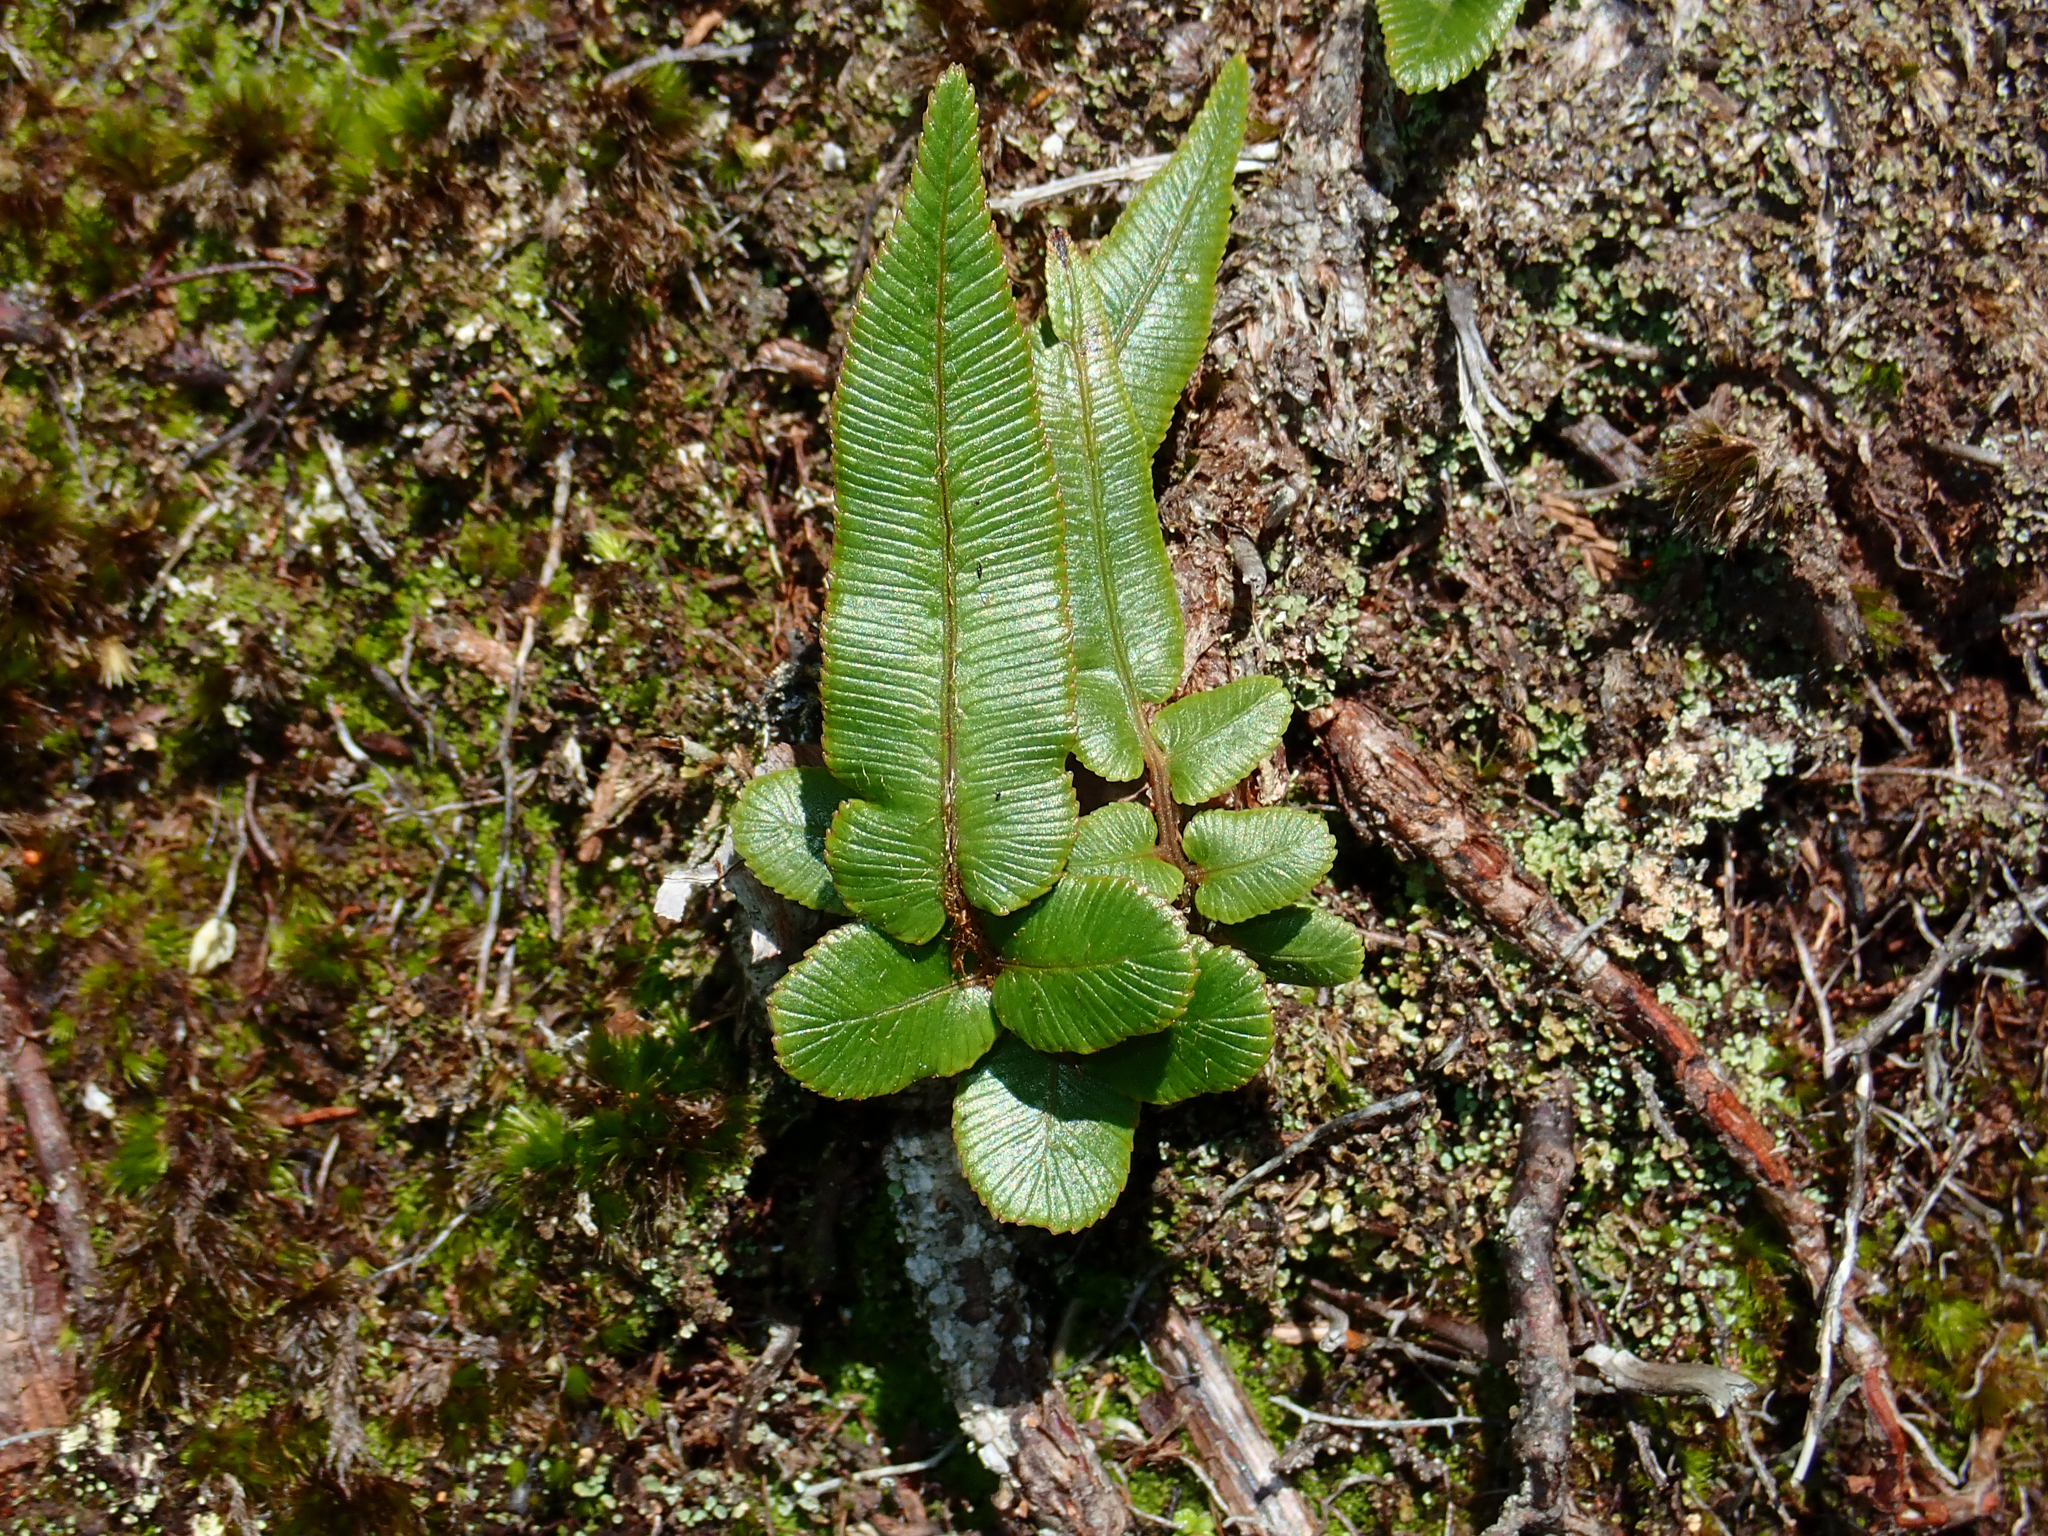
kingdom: Plantae
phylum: Tracheophyta
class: Polypodiopsida
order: Polypodiales
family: Blechnaceae
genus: Parablechnum
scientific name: Parablechnum procerum
